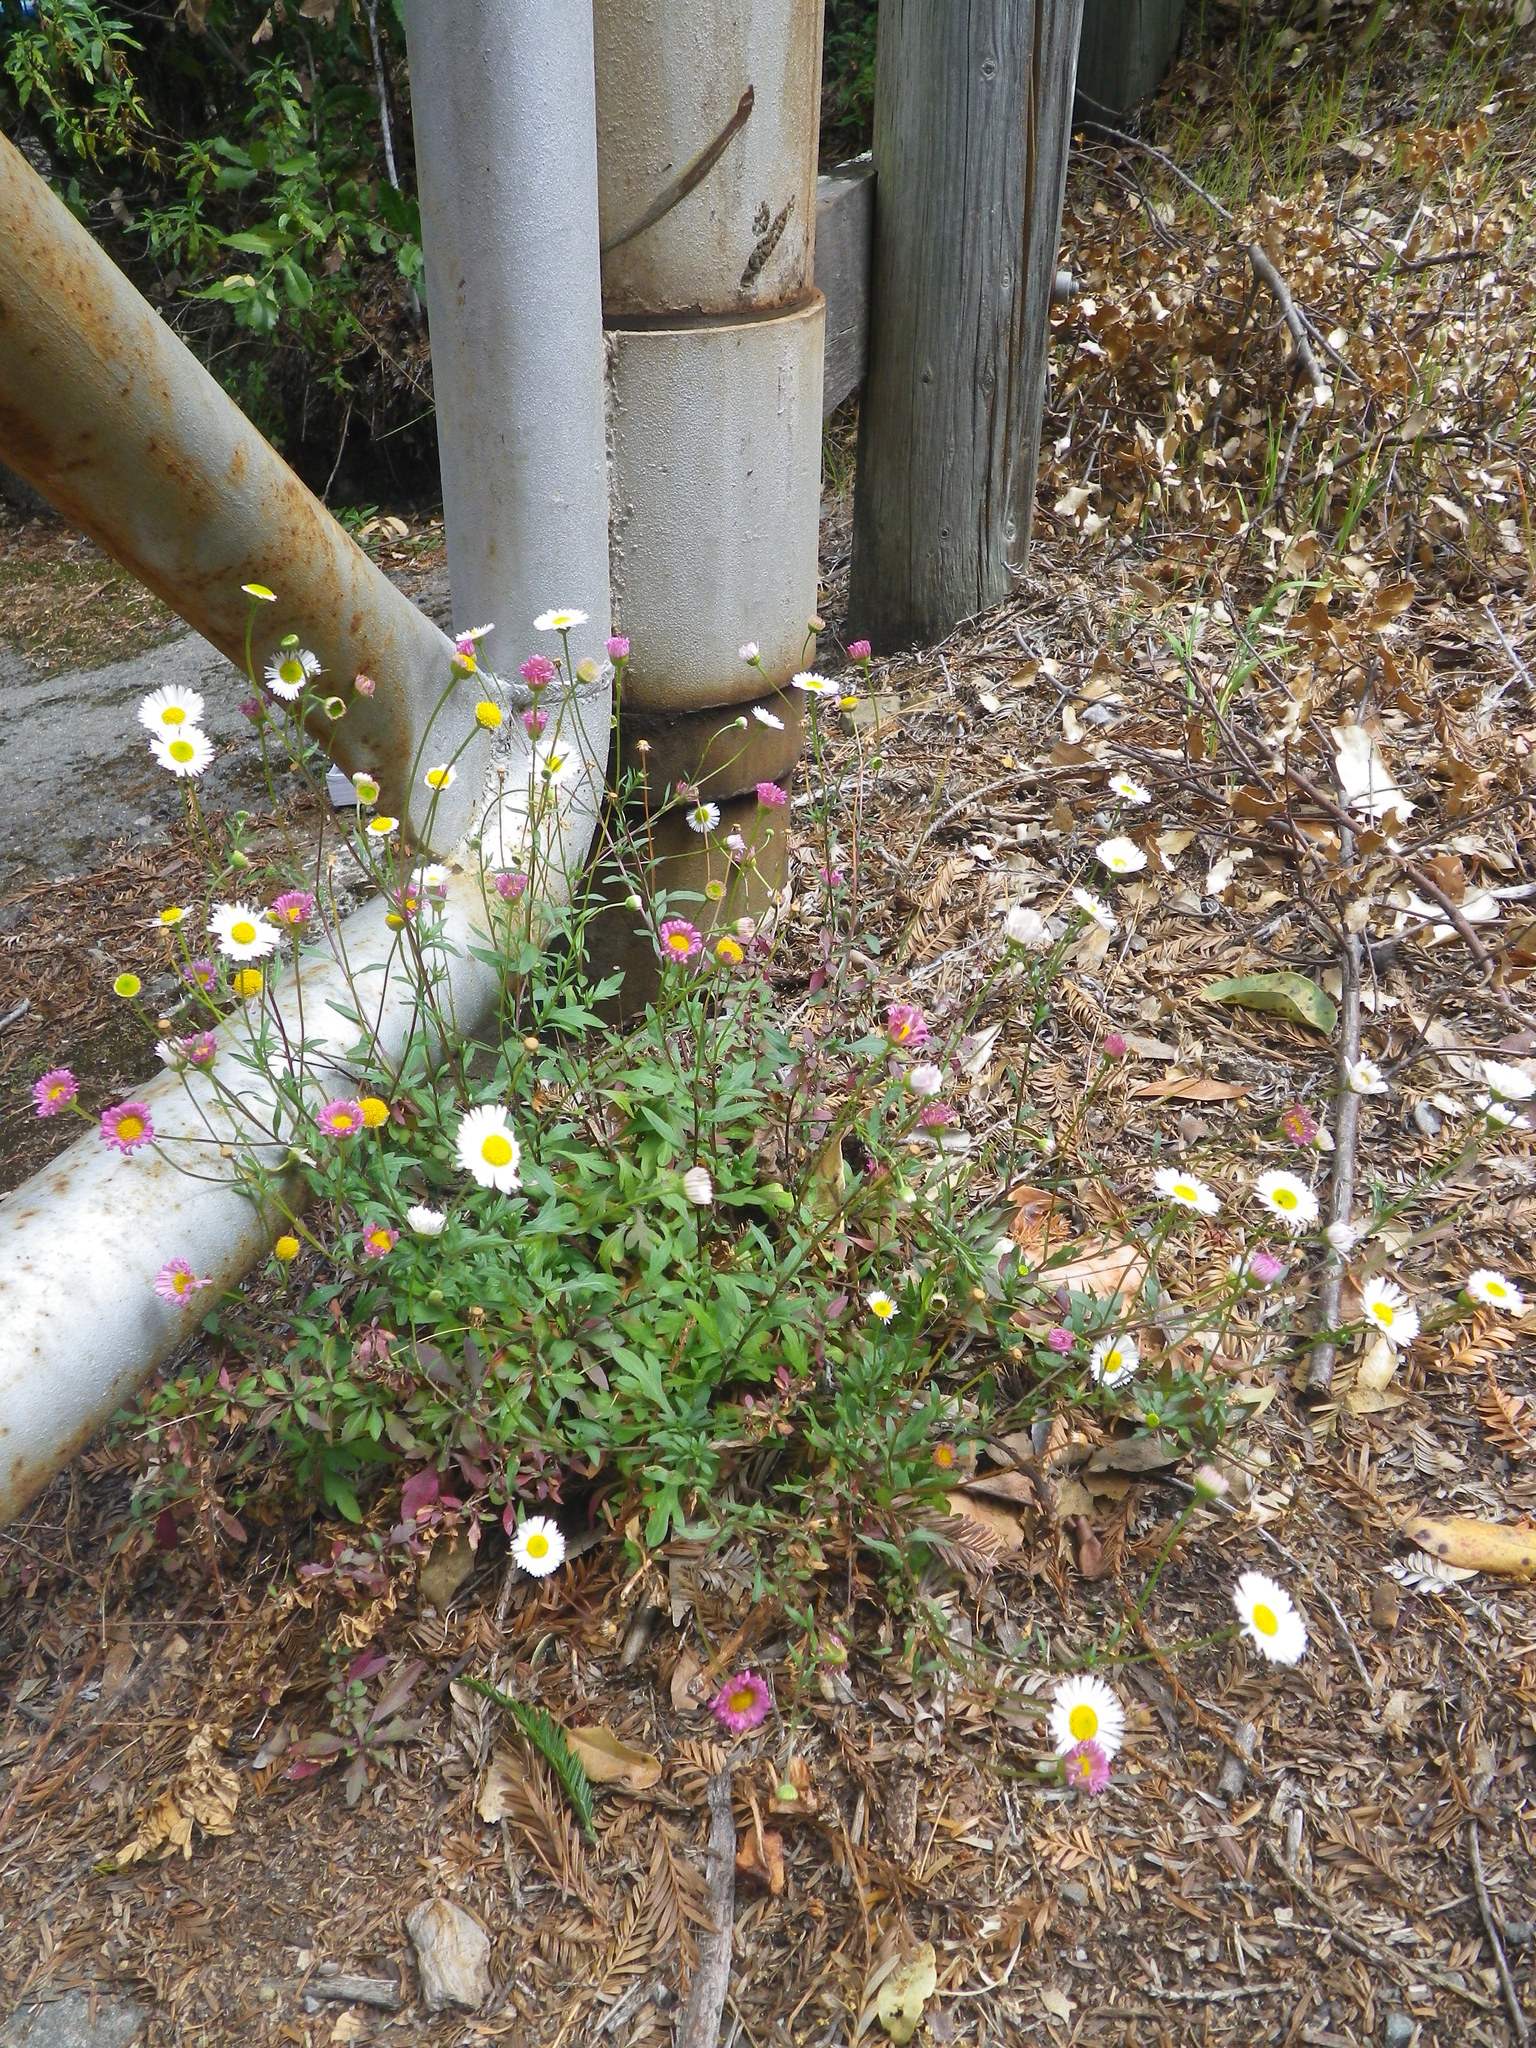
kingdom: Plantae
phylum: Tracheophyta
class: Magnoliopsida
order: Asterales
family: Asteraceae
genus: Erigeron
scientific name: Erigeron karvinskianus
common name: Mexican fleabane
